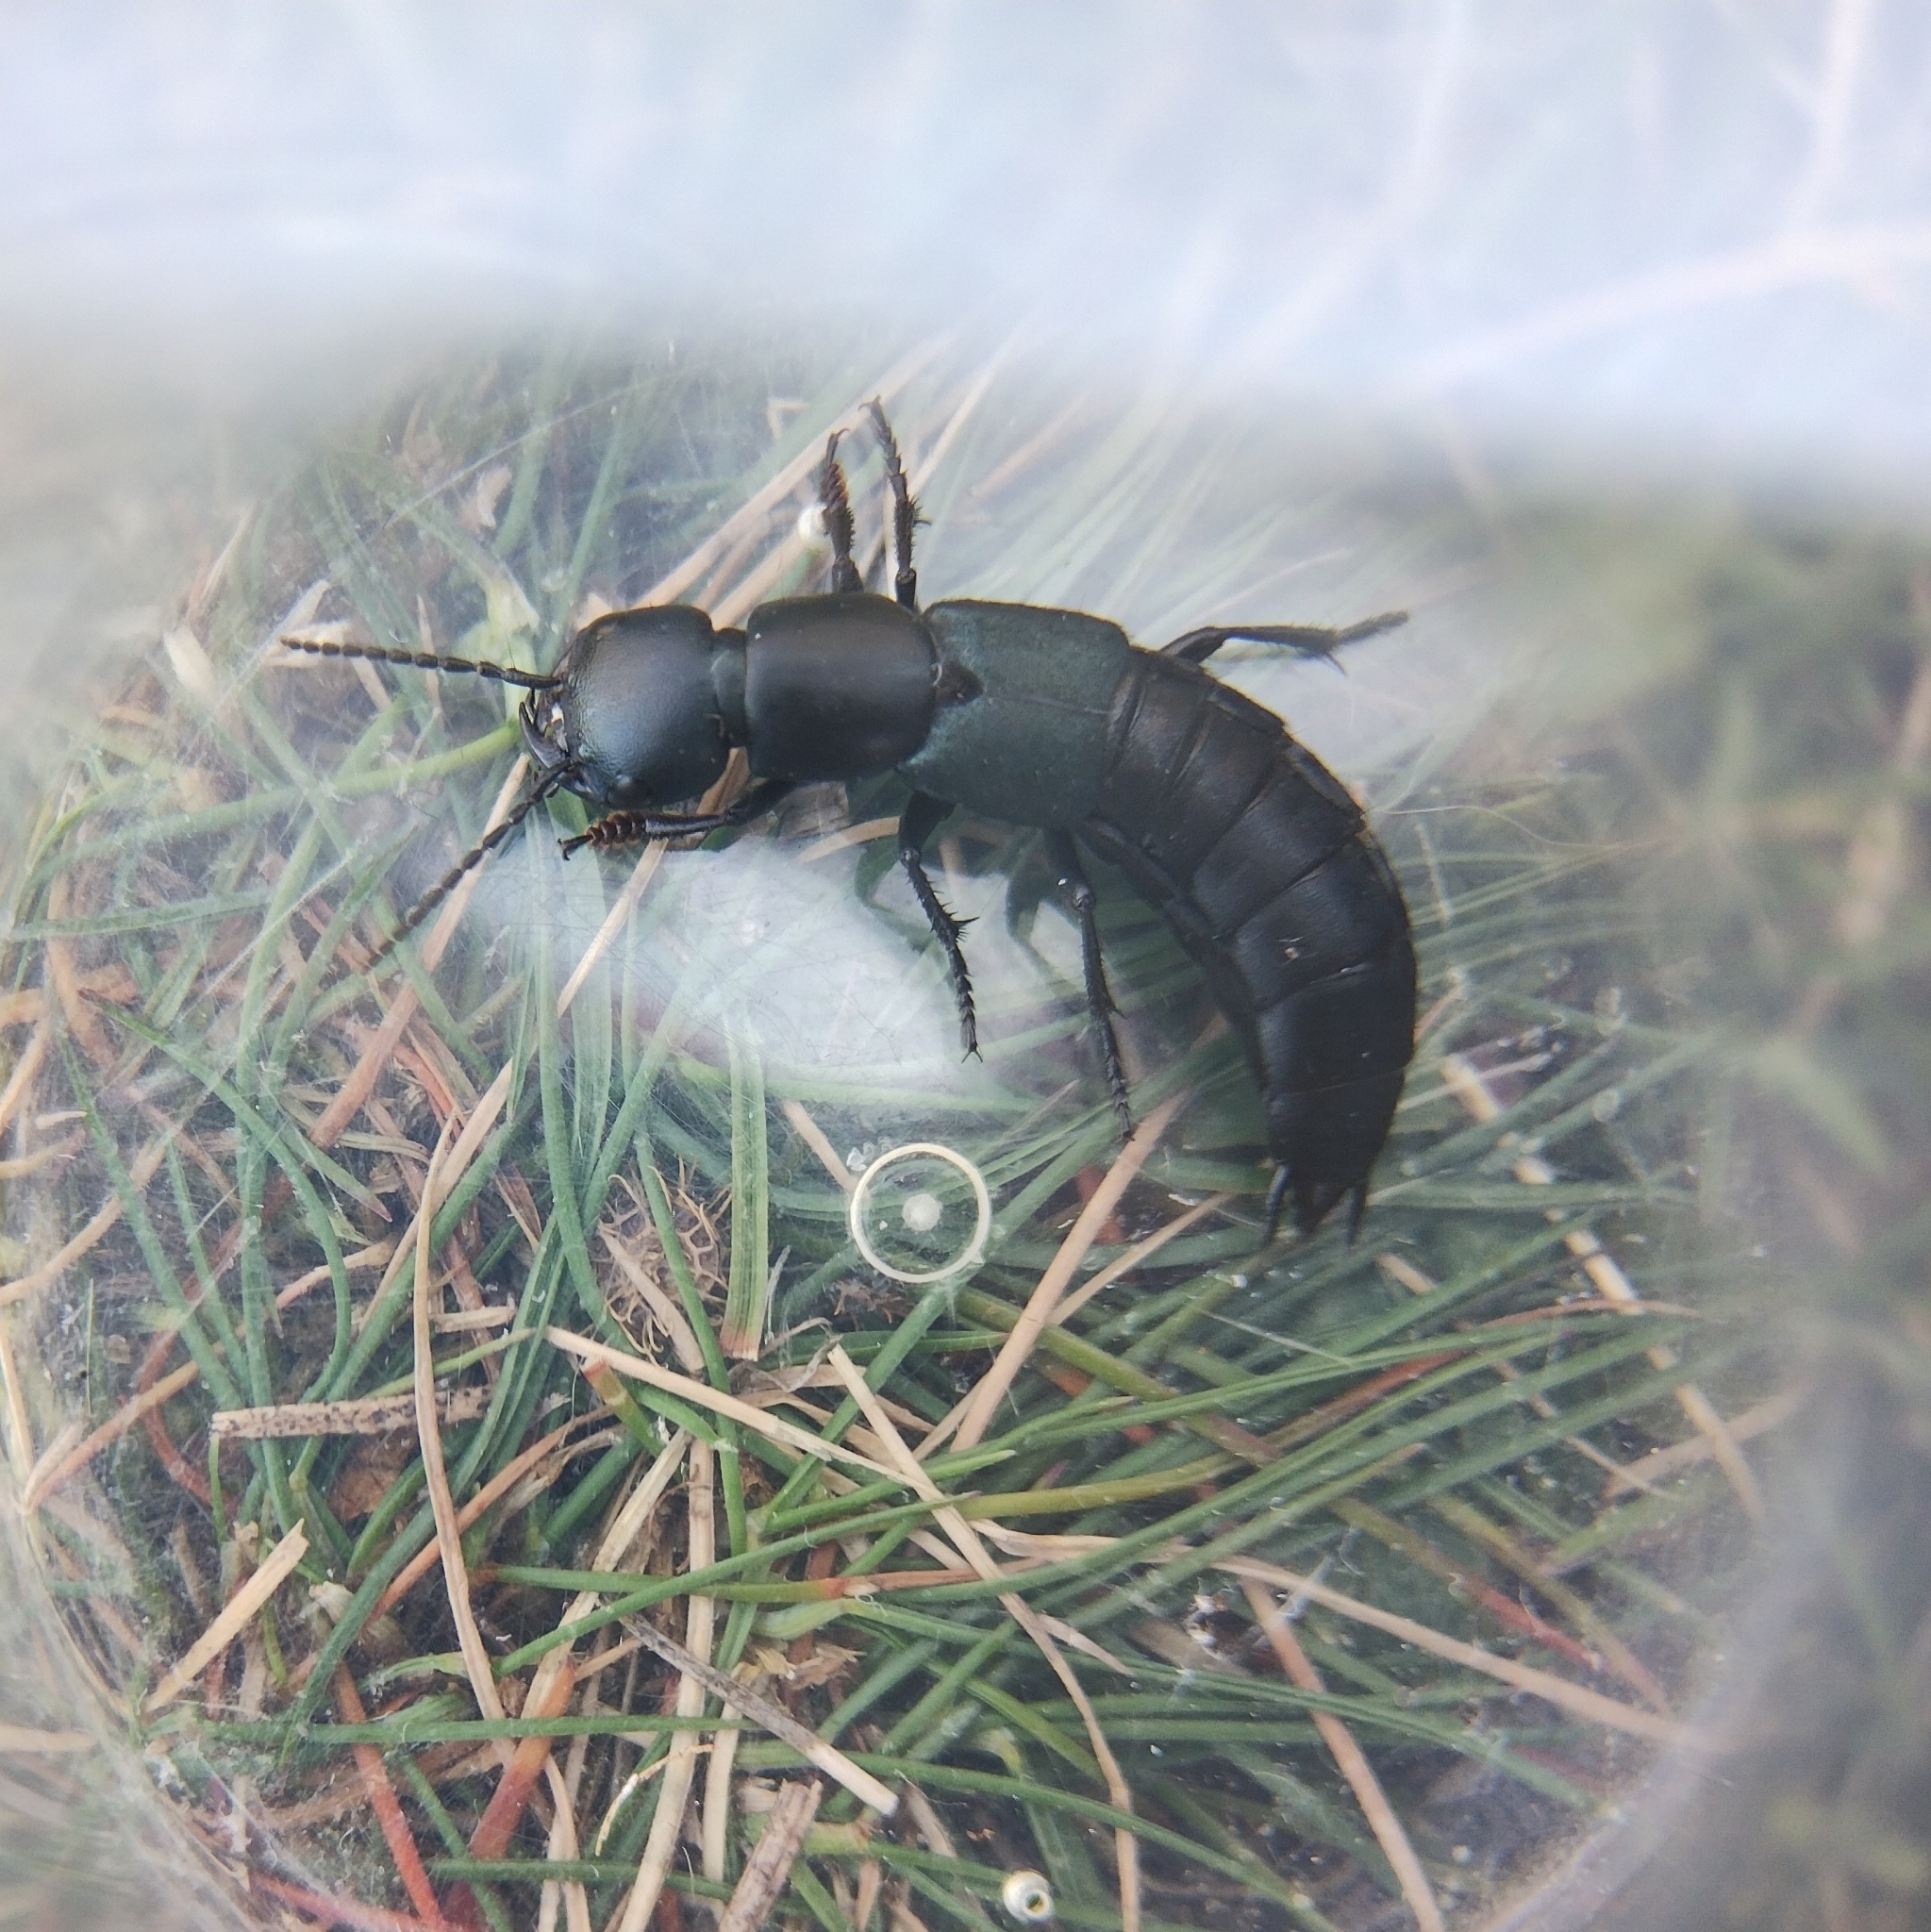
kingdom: Animalia
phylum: Arthropoda
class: Insecta
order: Coleoptera
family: Staphylinidae
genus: Ocypus
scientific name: Ocypus ophthalmicus
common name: Blue rove-beetle
